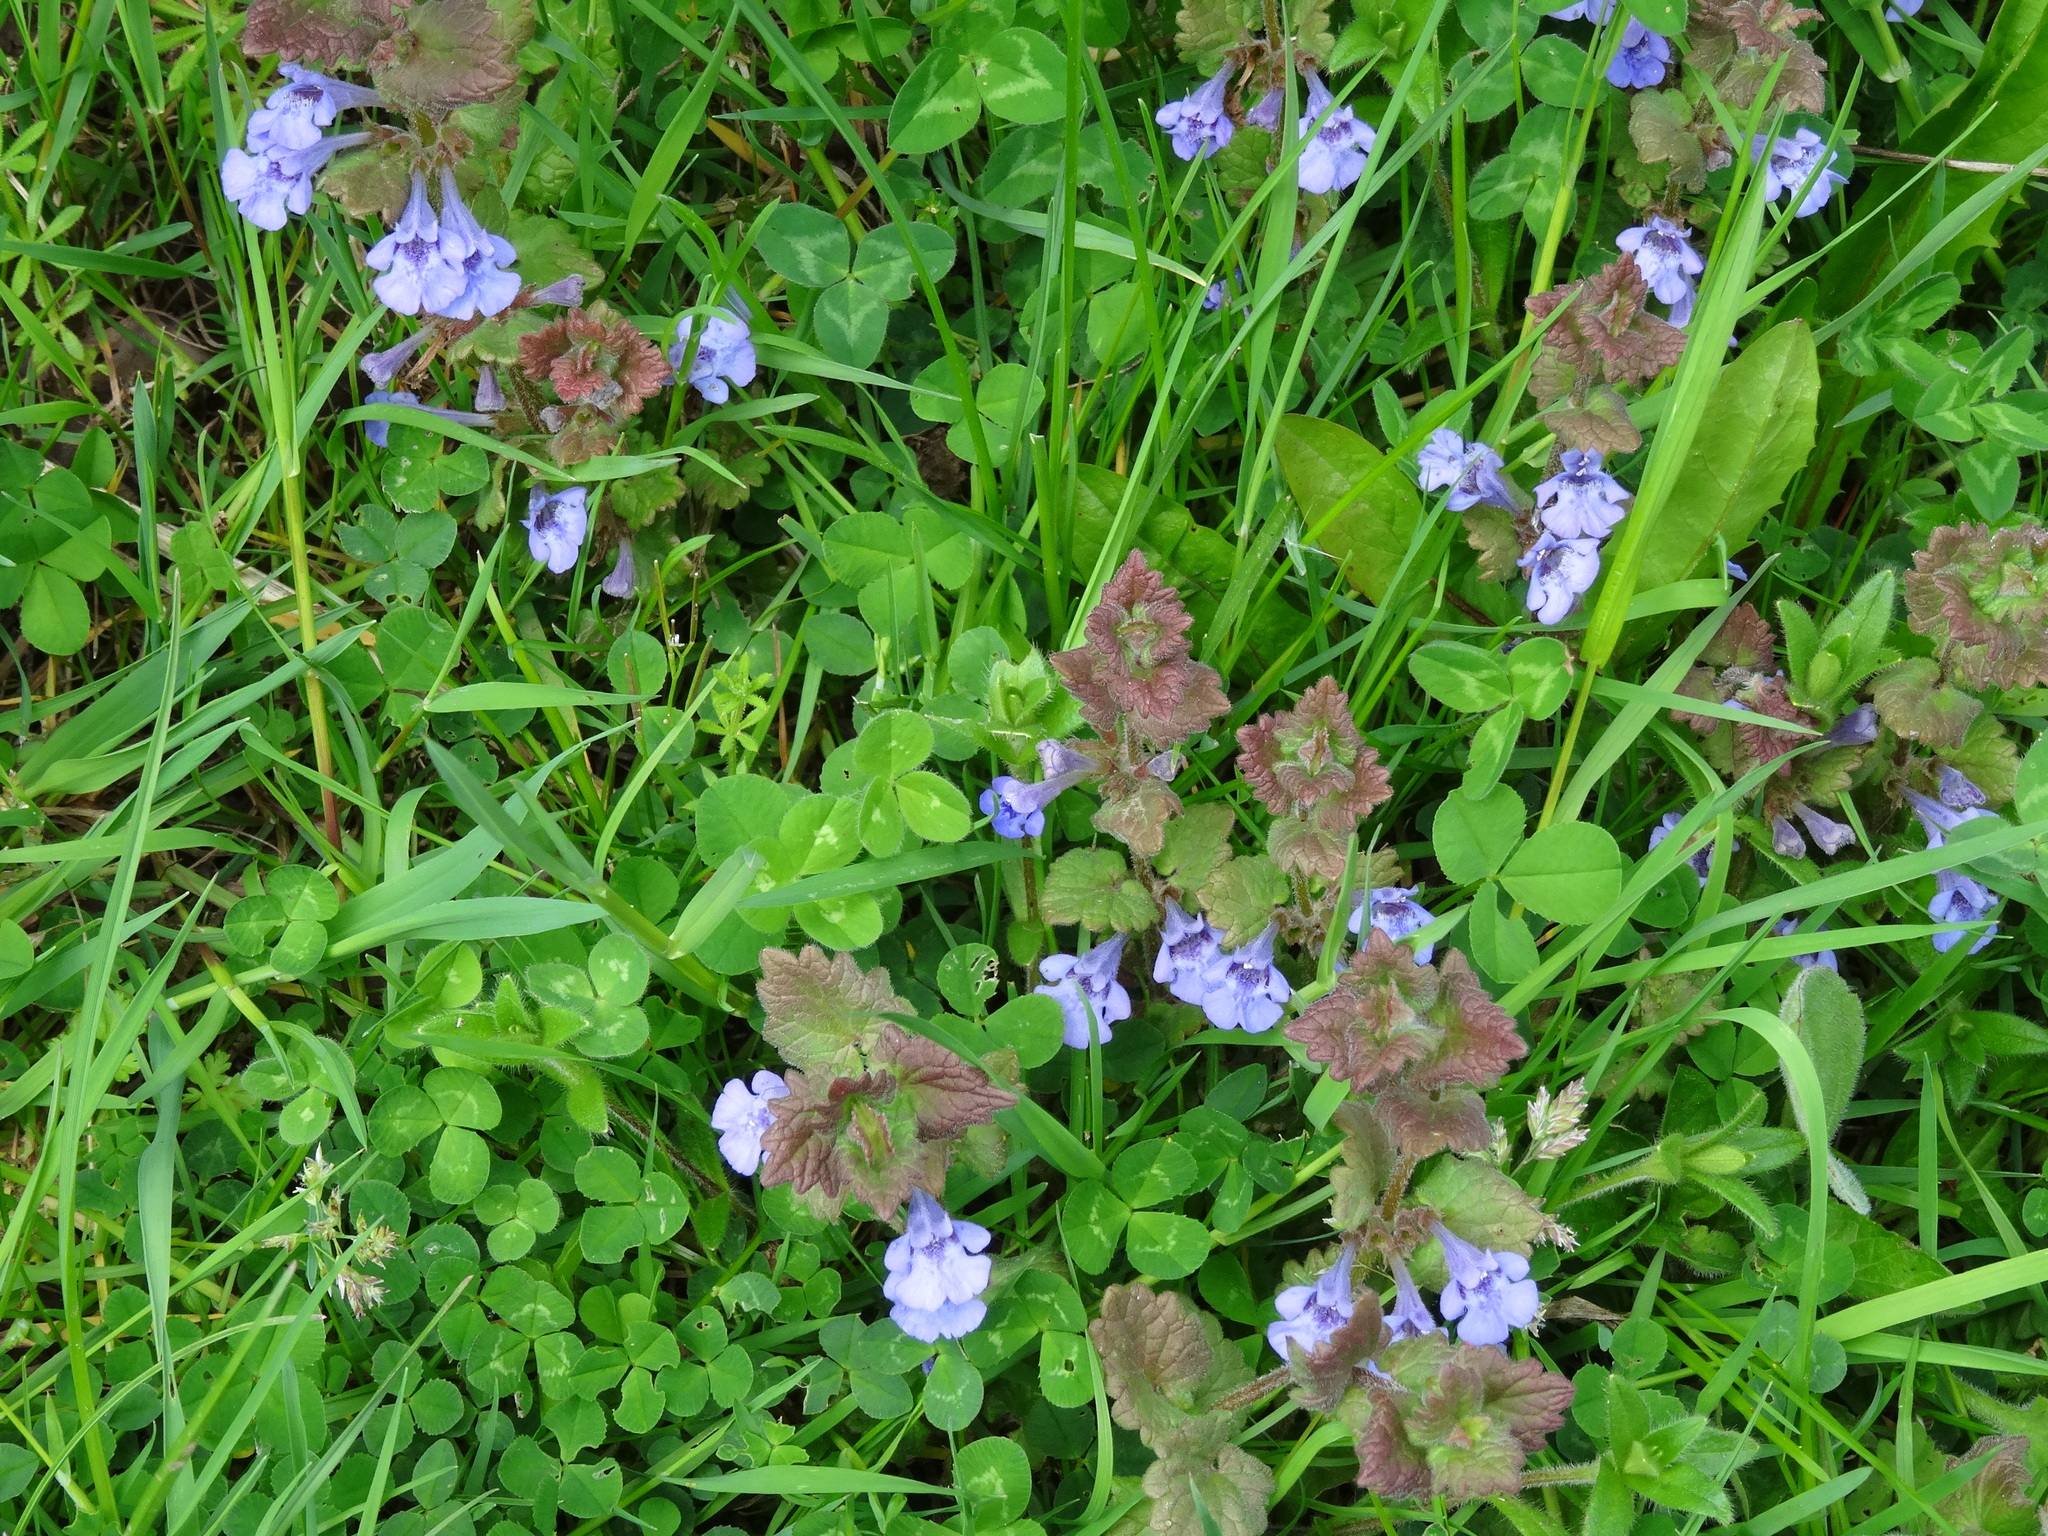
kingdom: Plantae
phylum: Tracheophyta
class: Magnoliopsida
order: Lamiales
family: Lamiaceae
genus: Glechoma
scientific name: Glechoma hederacea
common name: Ground ivy
